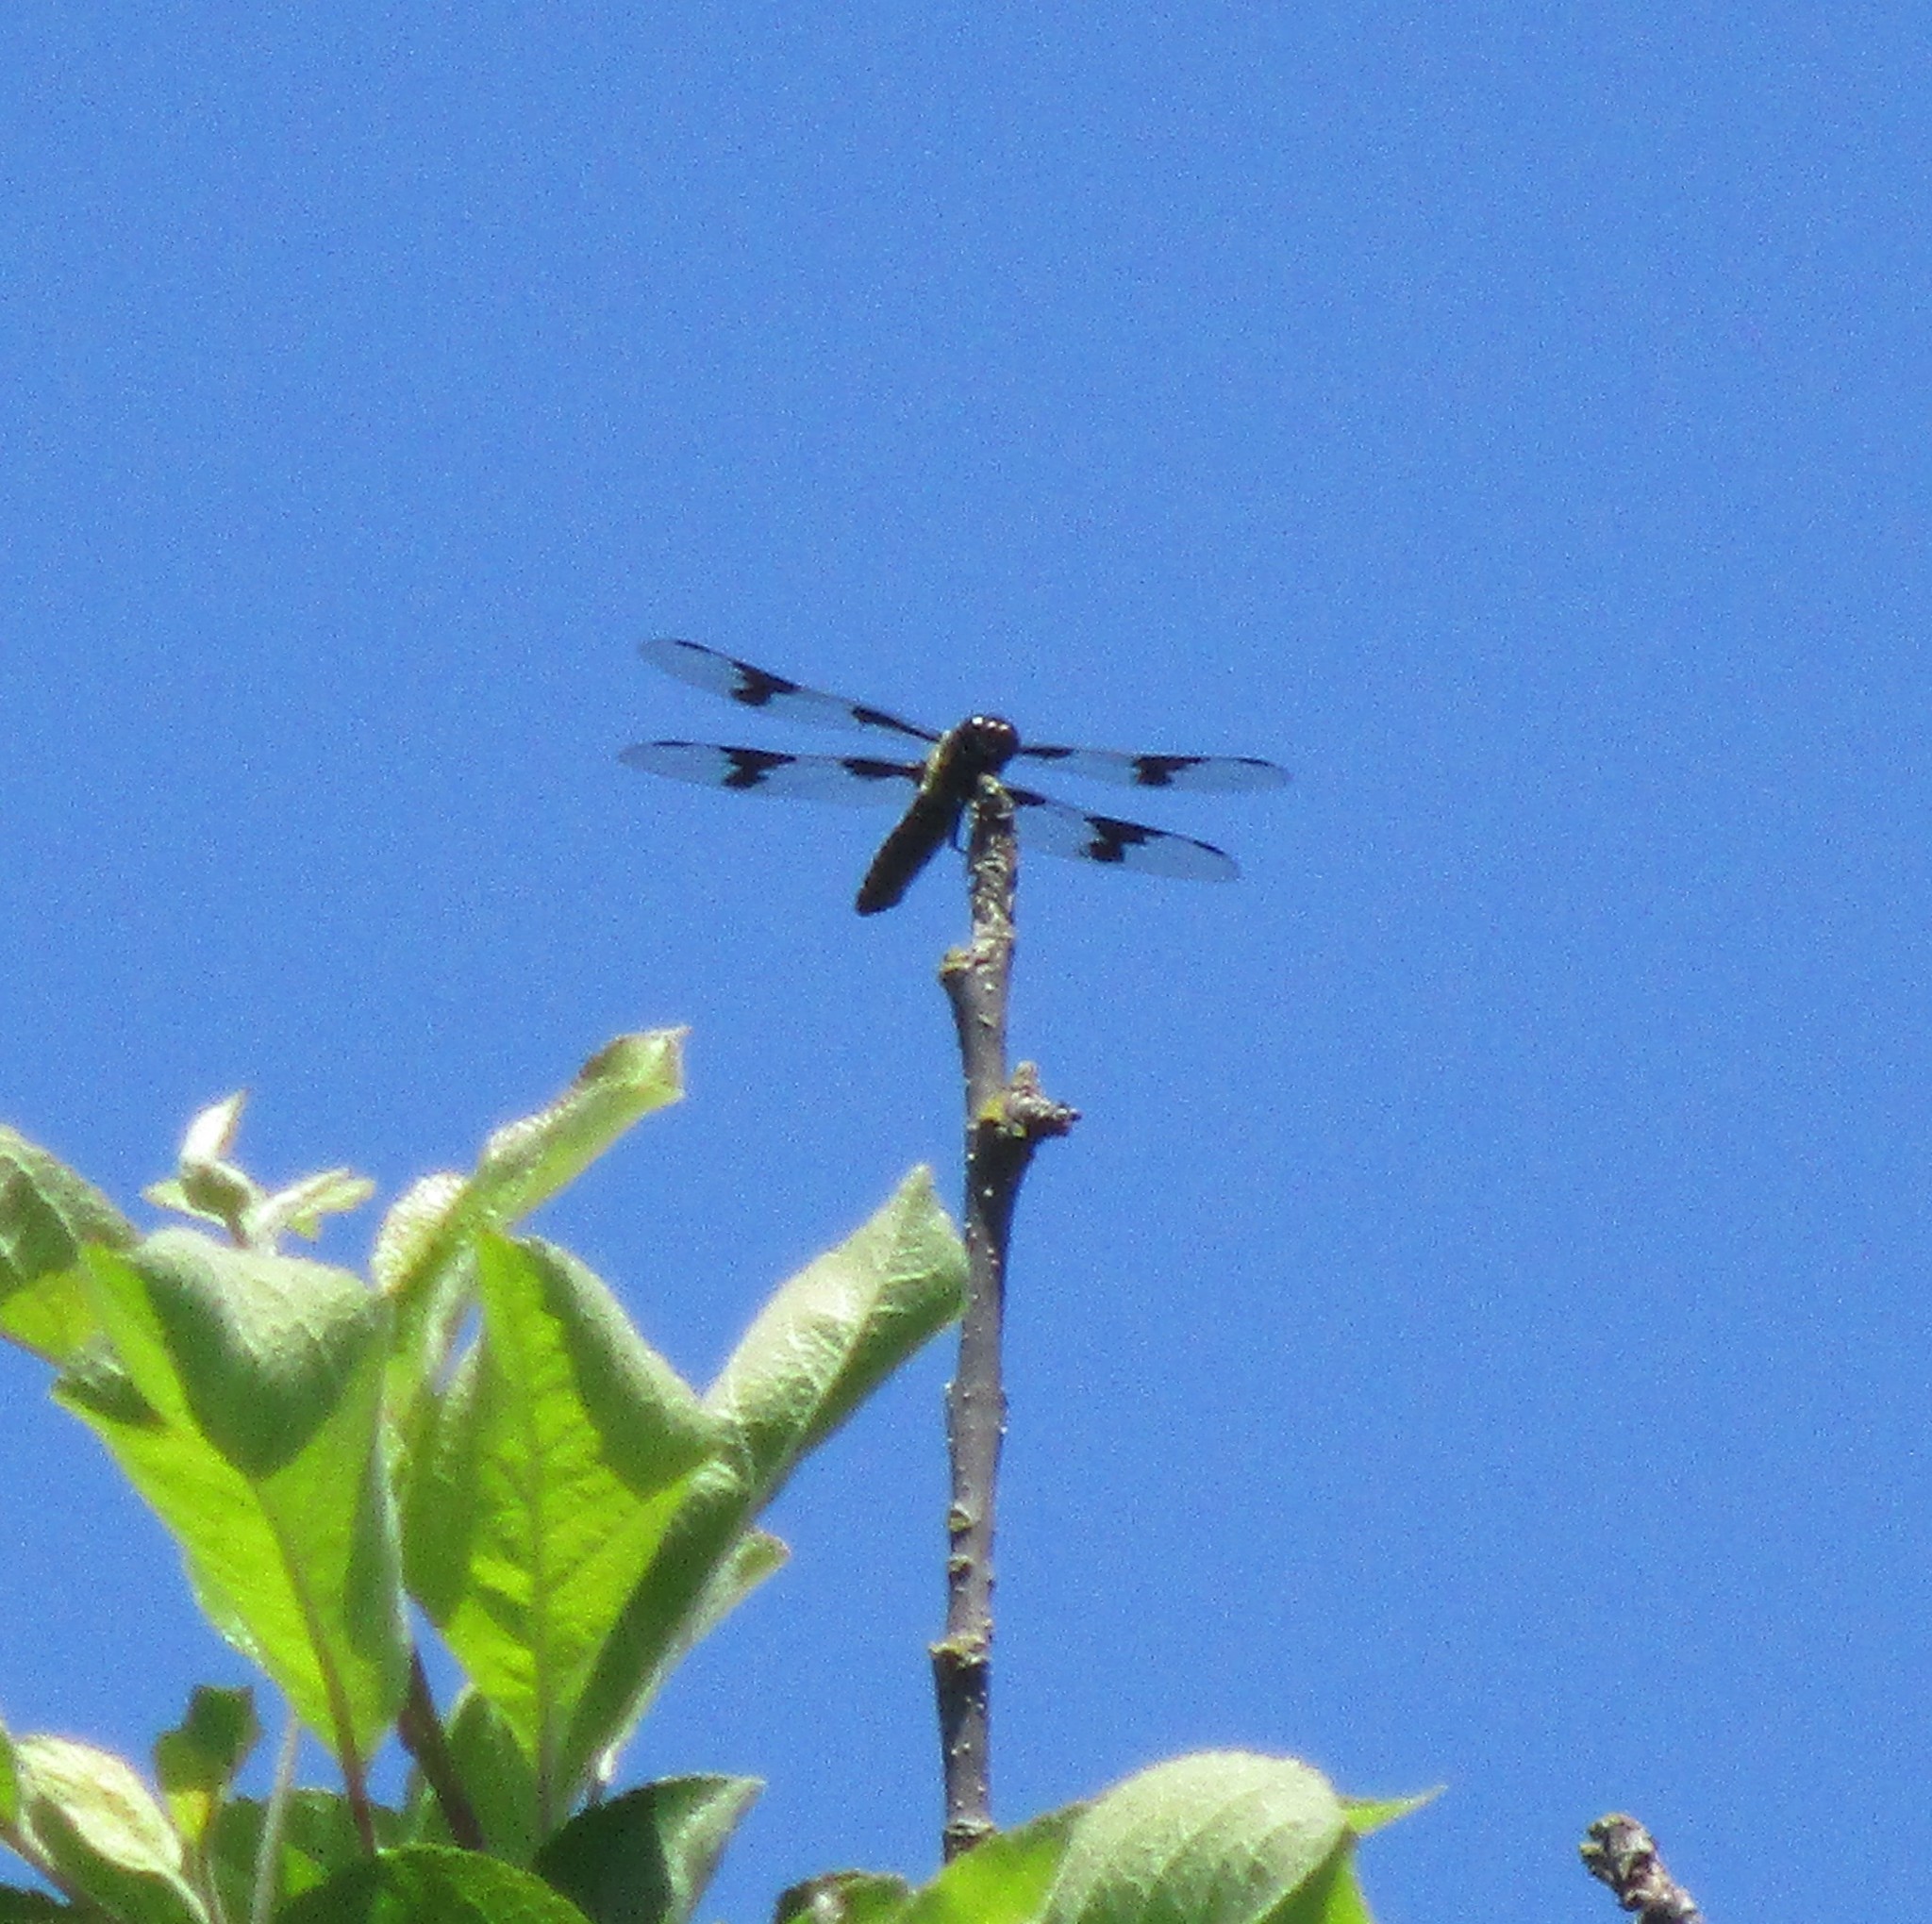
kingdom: Animalia
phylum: Arthropoda
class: Insecta
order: Odonata
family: Libellulidae
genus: Libellula
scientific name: Libellula forensis
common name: Eight-spotted skimmer
